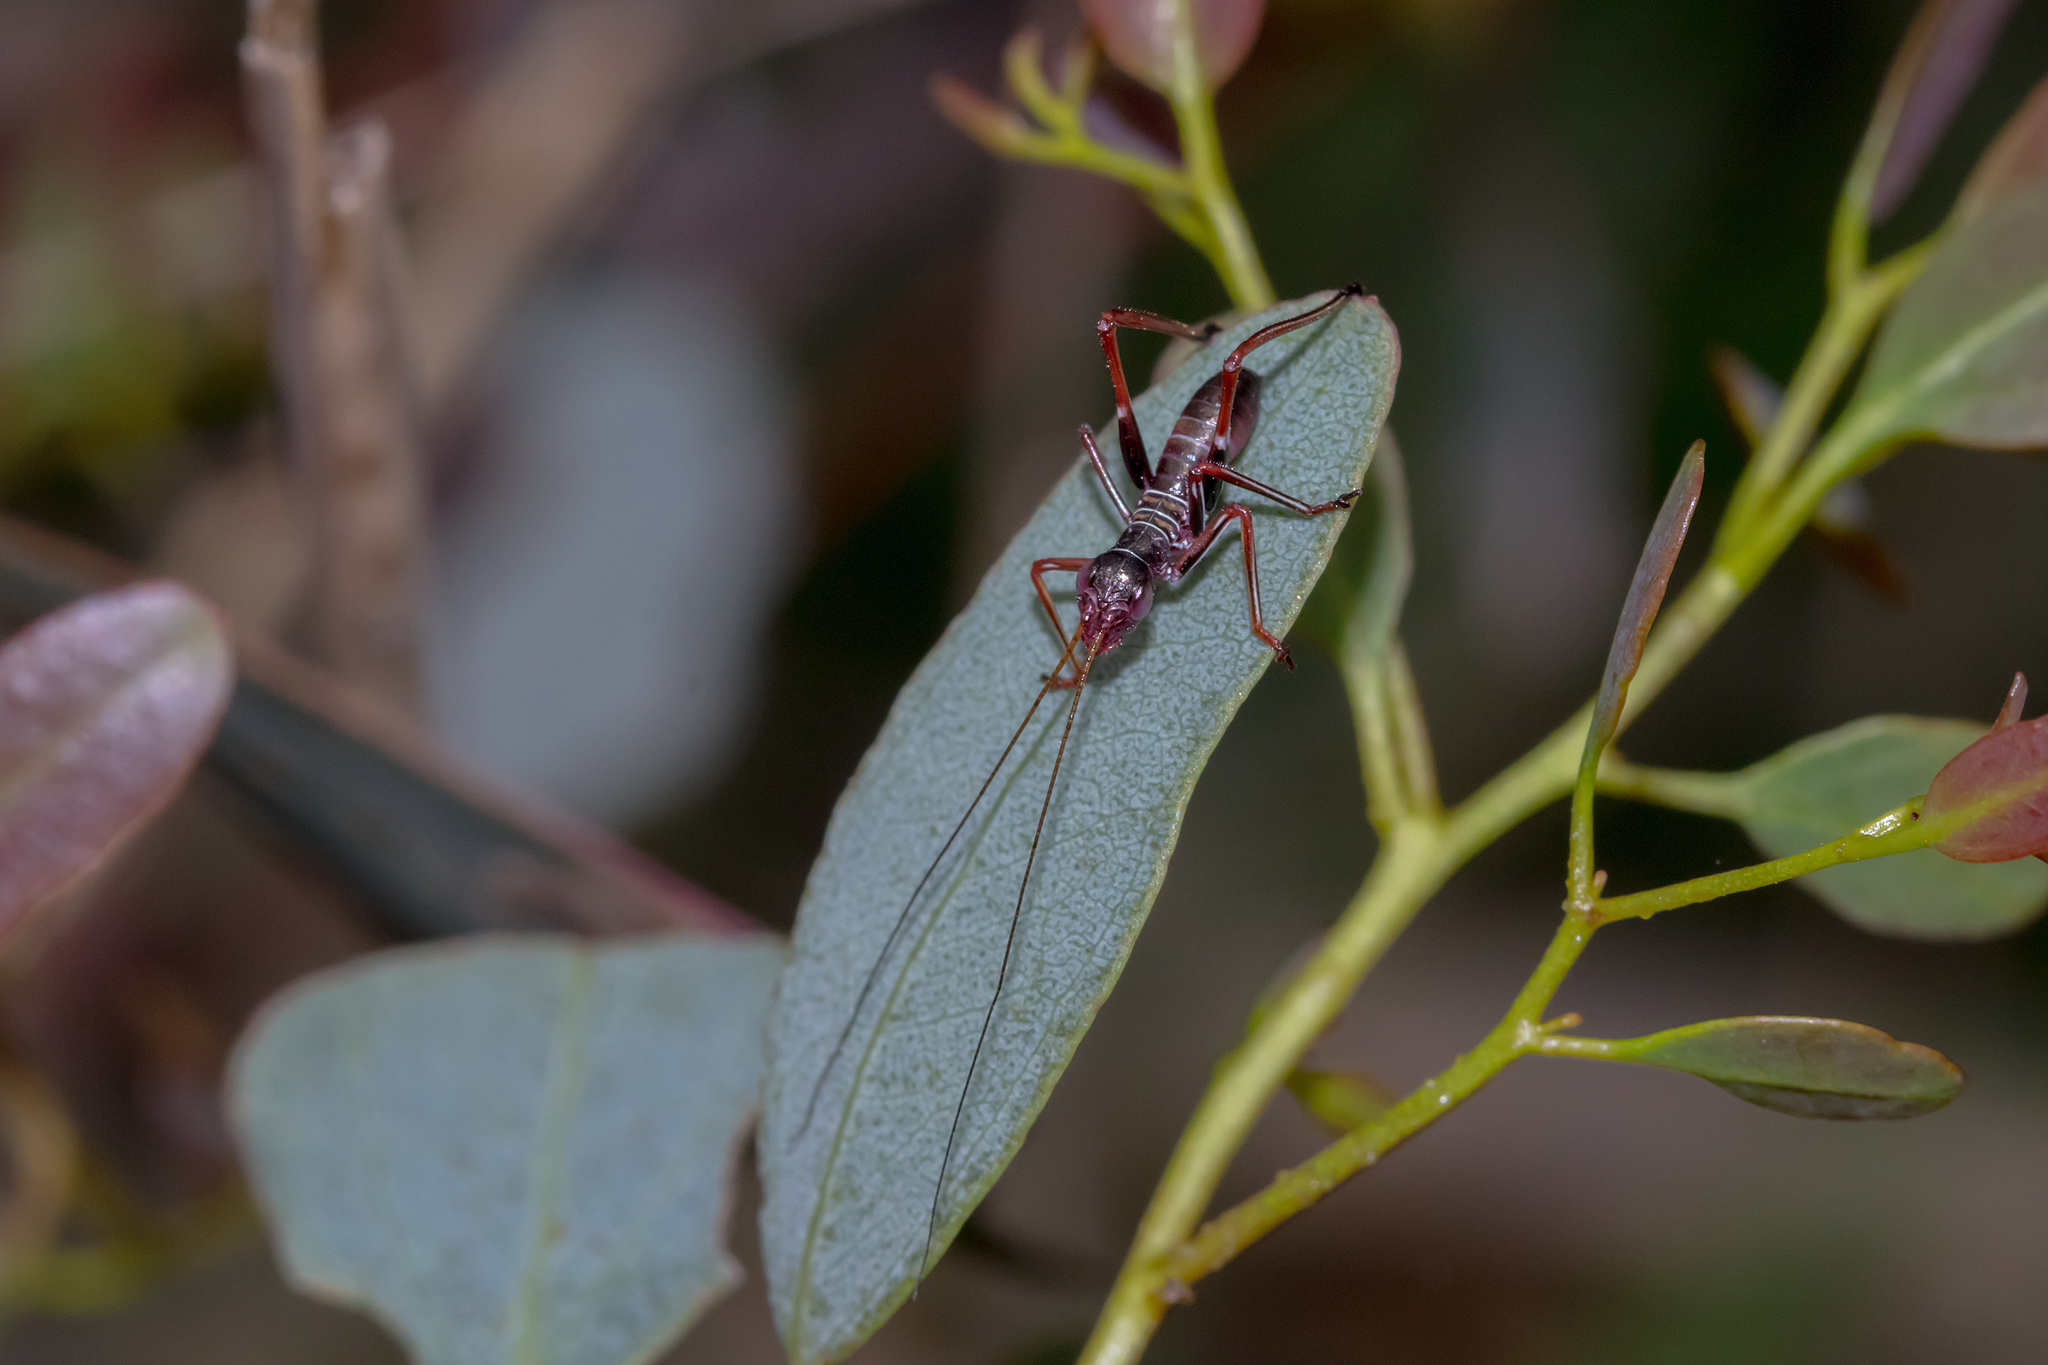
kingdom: Animalia
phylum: Arthropoda
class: Insecta
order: Orthoptera
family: Tettigoniidae
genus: Torbia
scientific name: Torbia viridissima
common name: Non-predaceous gum leaf katydid
